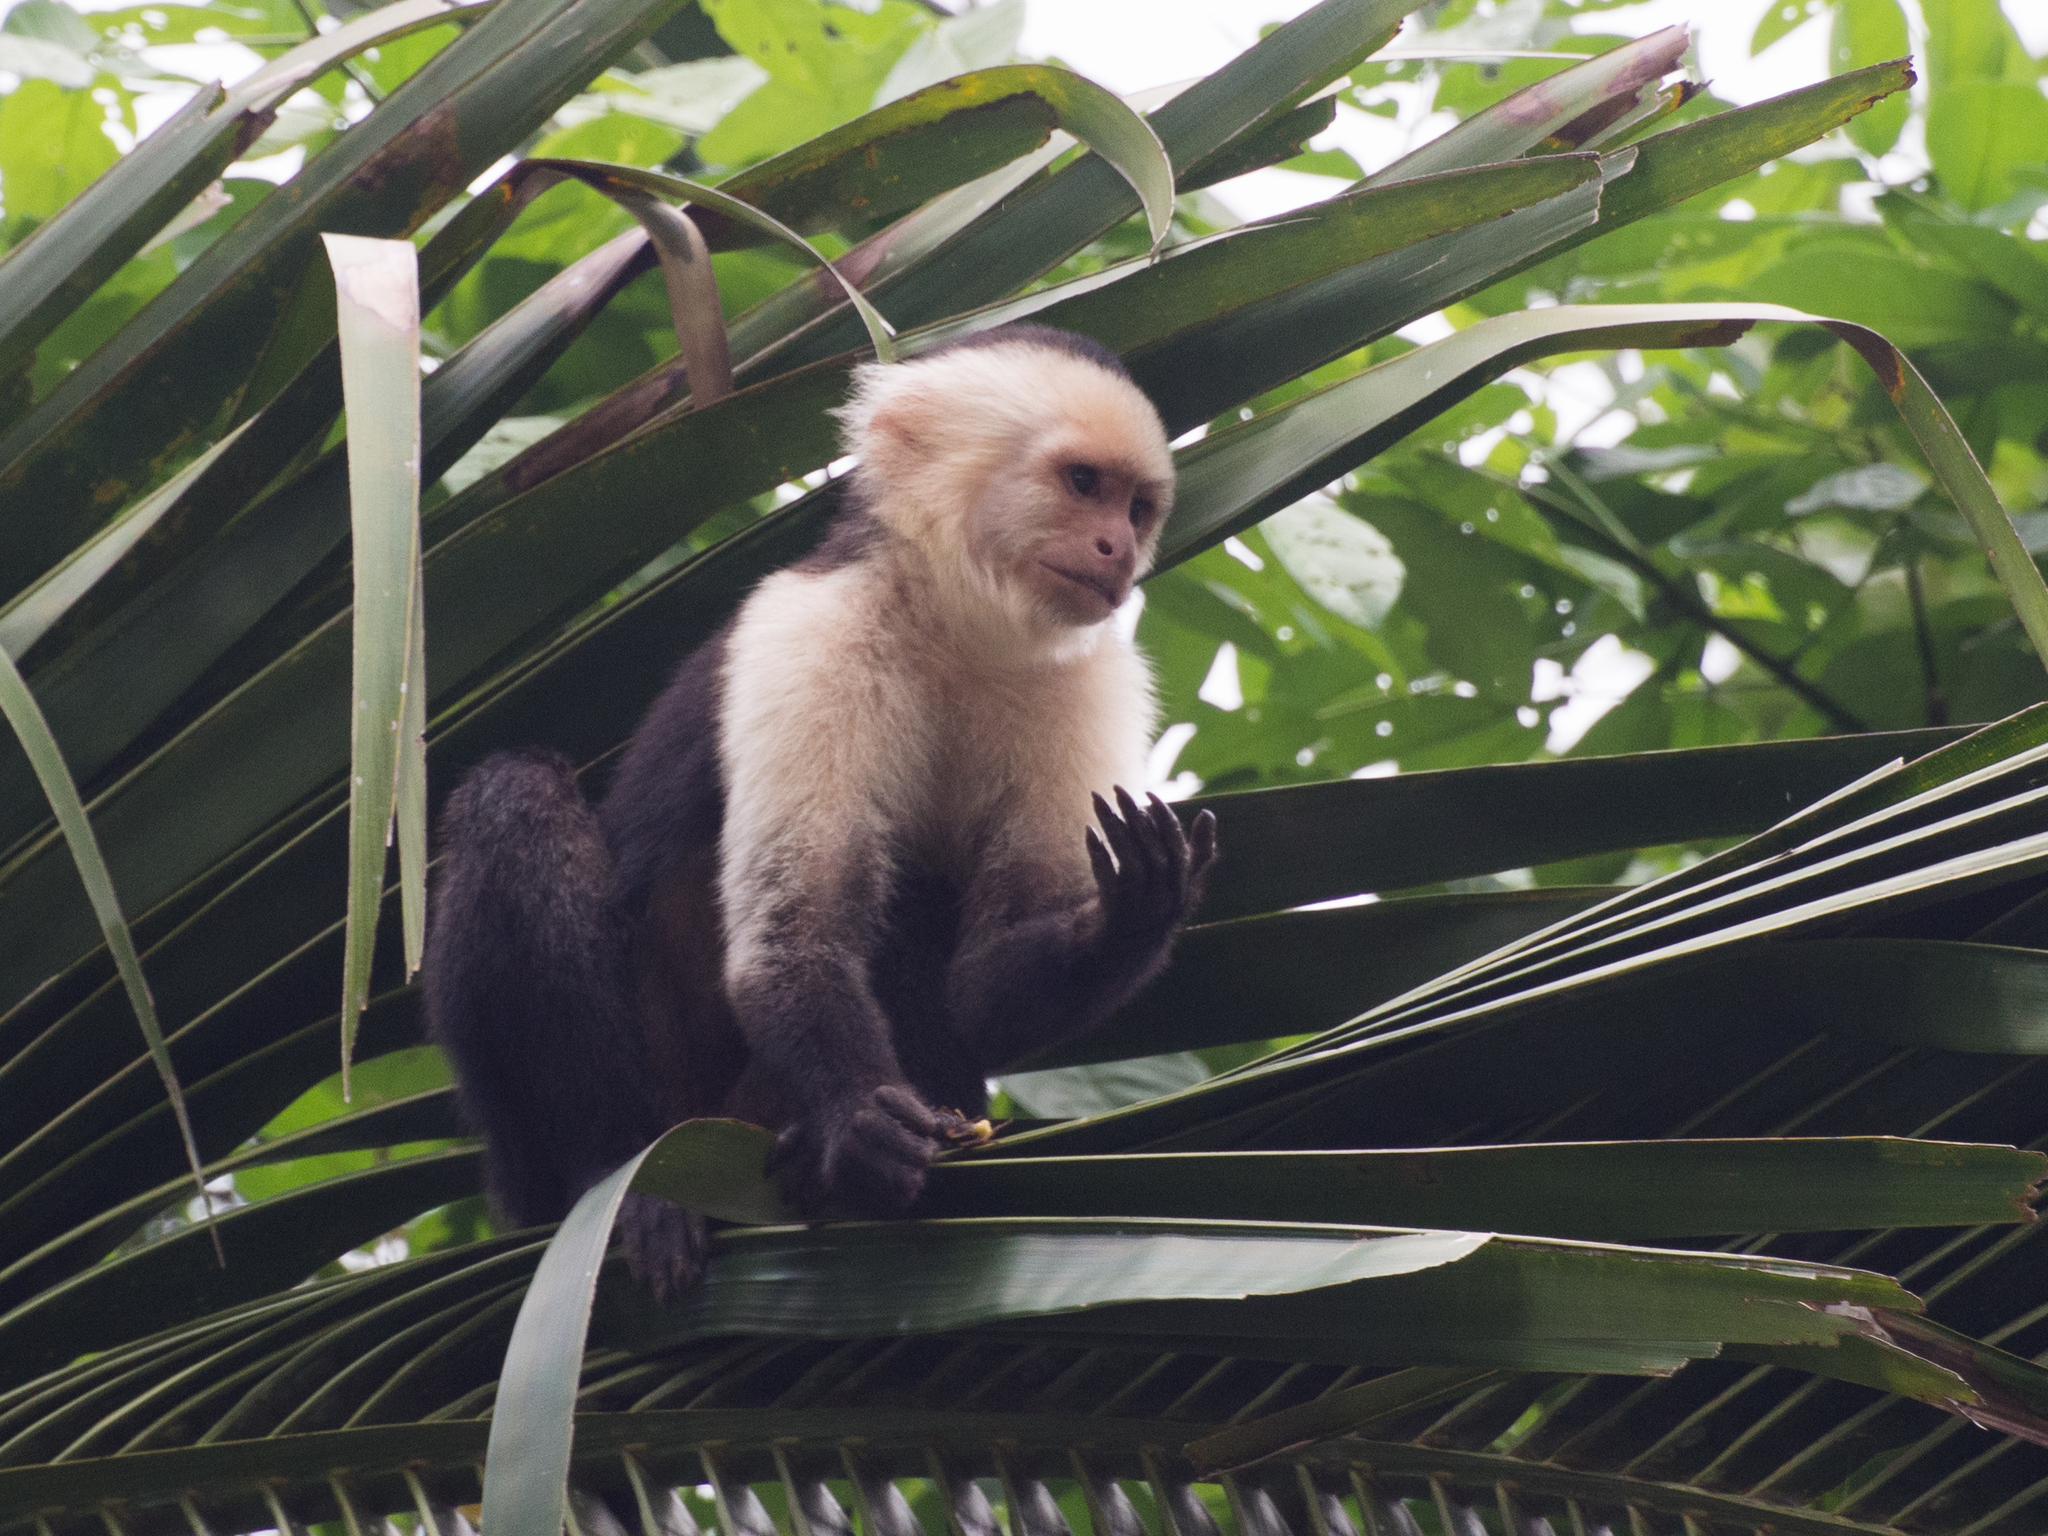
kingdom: Animalia
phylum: Chordata
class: Mammalia
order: Primates
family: Cebidae
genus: Cebus
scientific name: Cebus imitator
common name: Panamanian white-faced capuchin
